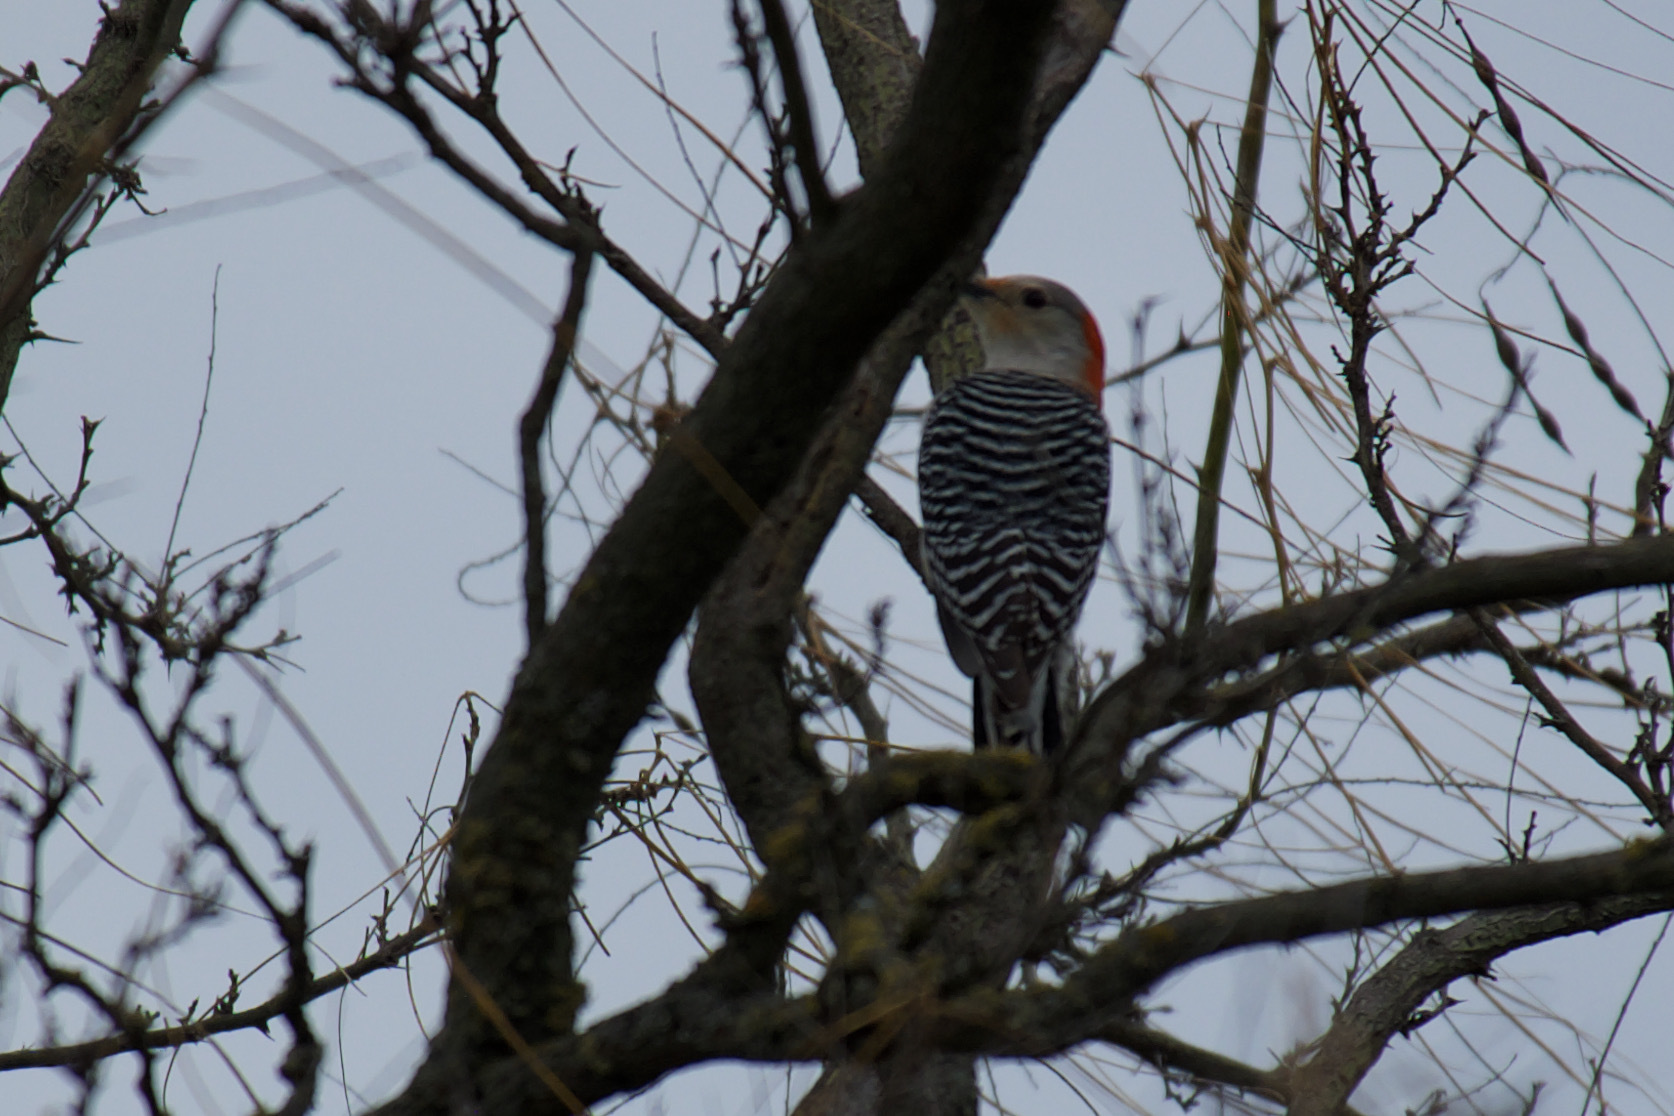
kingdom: Animalia
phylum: Chordata
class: Aves
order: Piciformes
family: Picidae
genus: Melanerpes
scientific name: Melanerpes carolinus
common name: Red-bellied woodpecker
